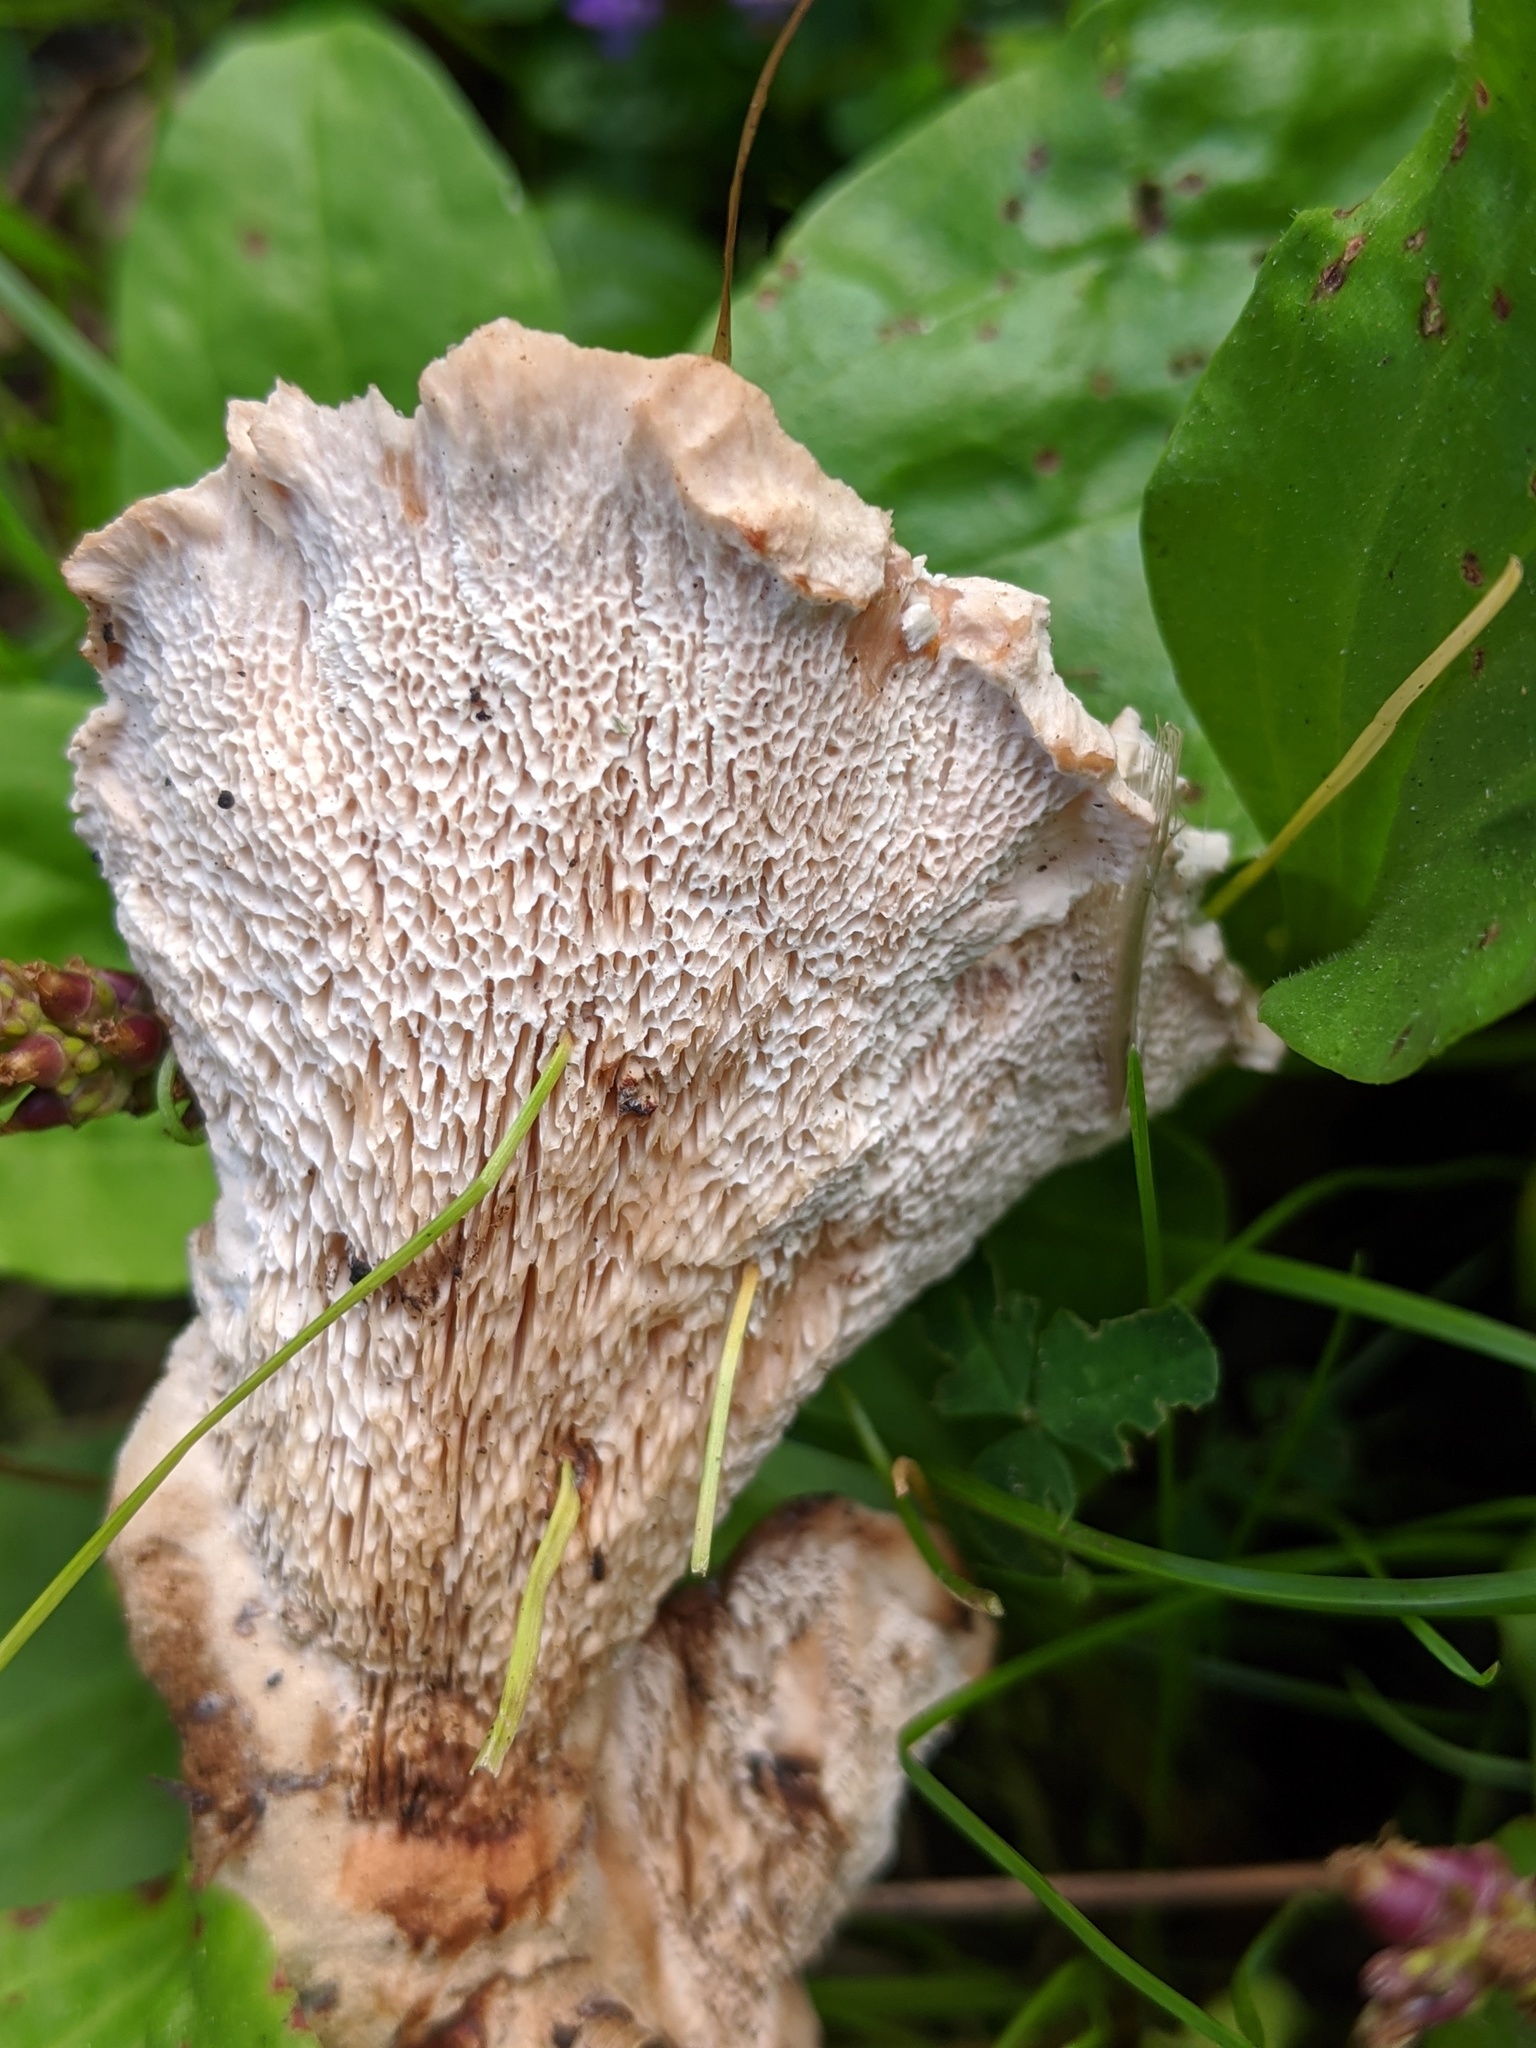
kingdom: Fungi
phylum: Basidiomycota
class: Agaricomycetes
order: Polyporales
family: Podoscyphaceae
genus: Abortiporus
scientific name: Abortiporus biennis
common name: Blushing rosette
